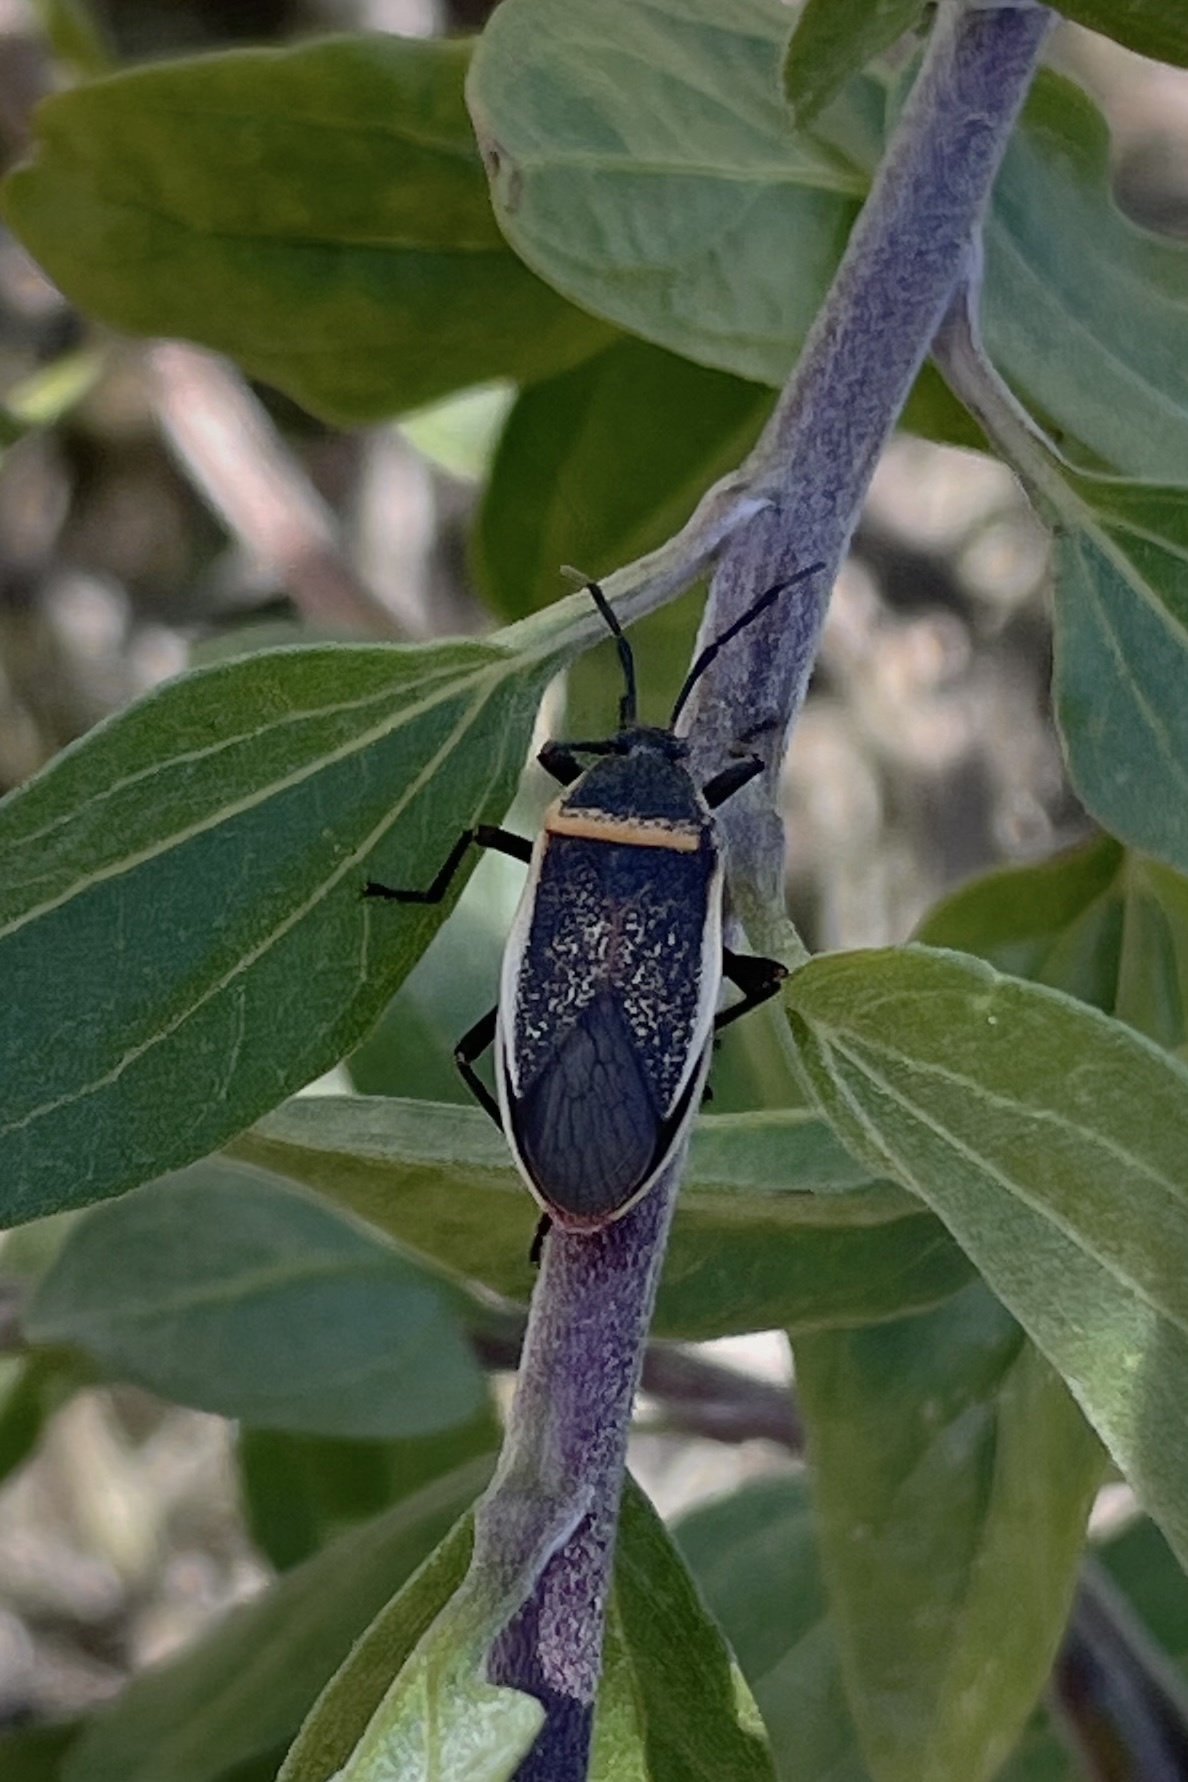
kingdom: Animalia
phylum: Arthropoda
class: Insecta
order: Hemiptera
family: Largidae
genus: Largus
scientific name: Largus californicus
